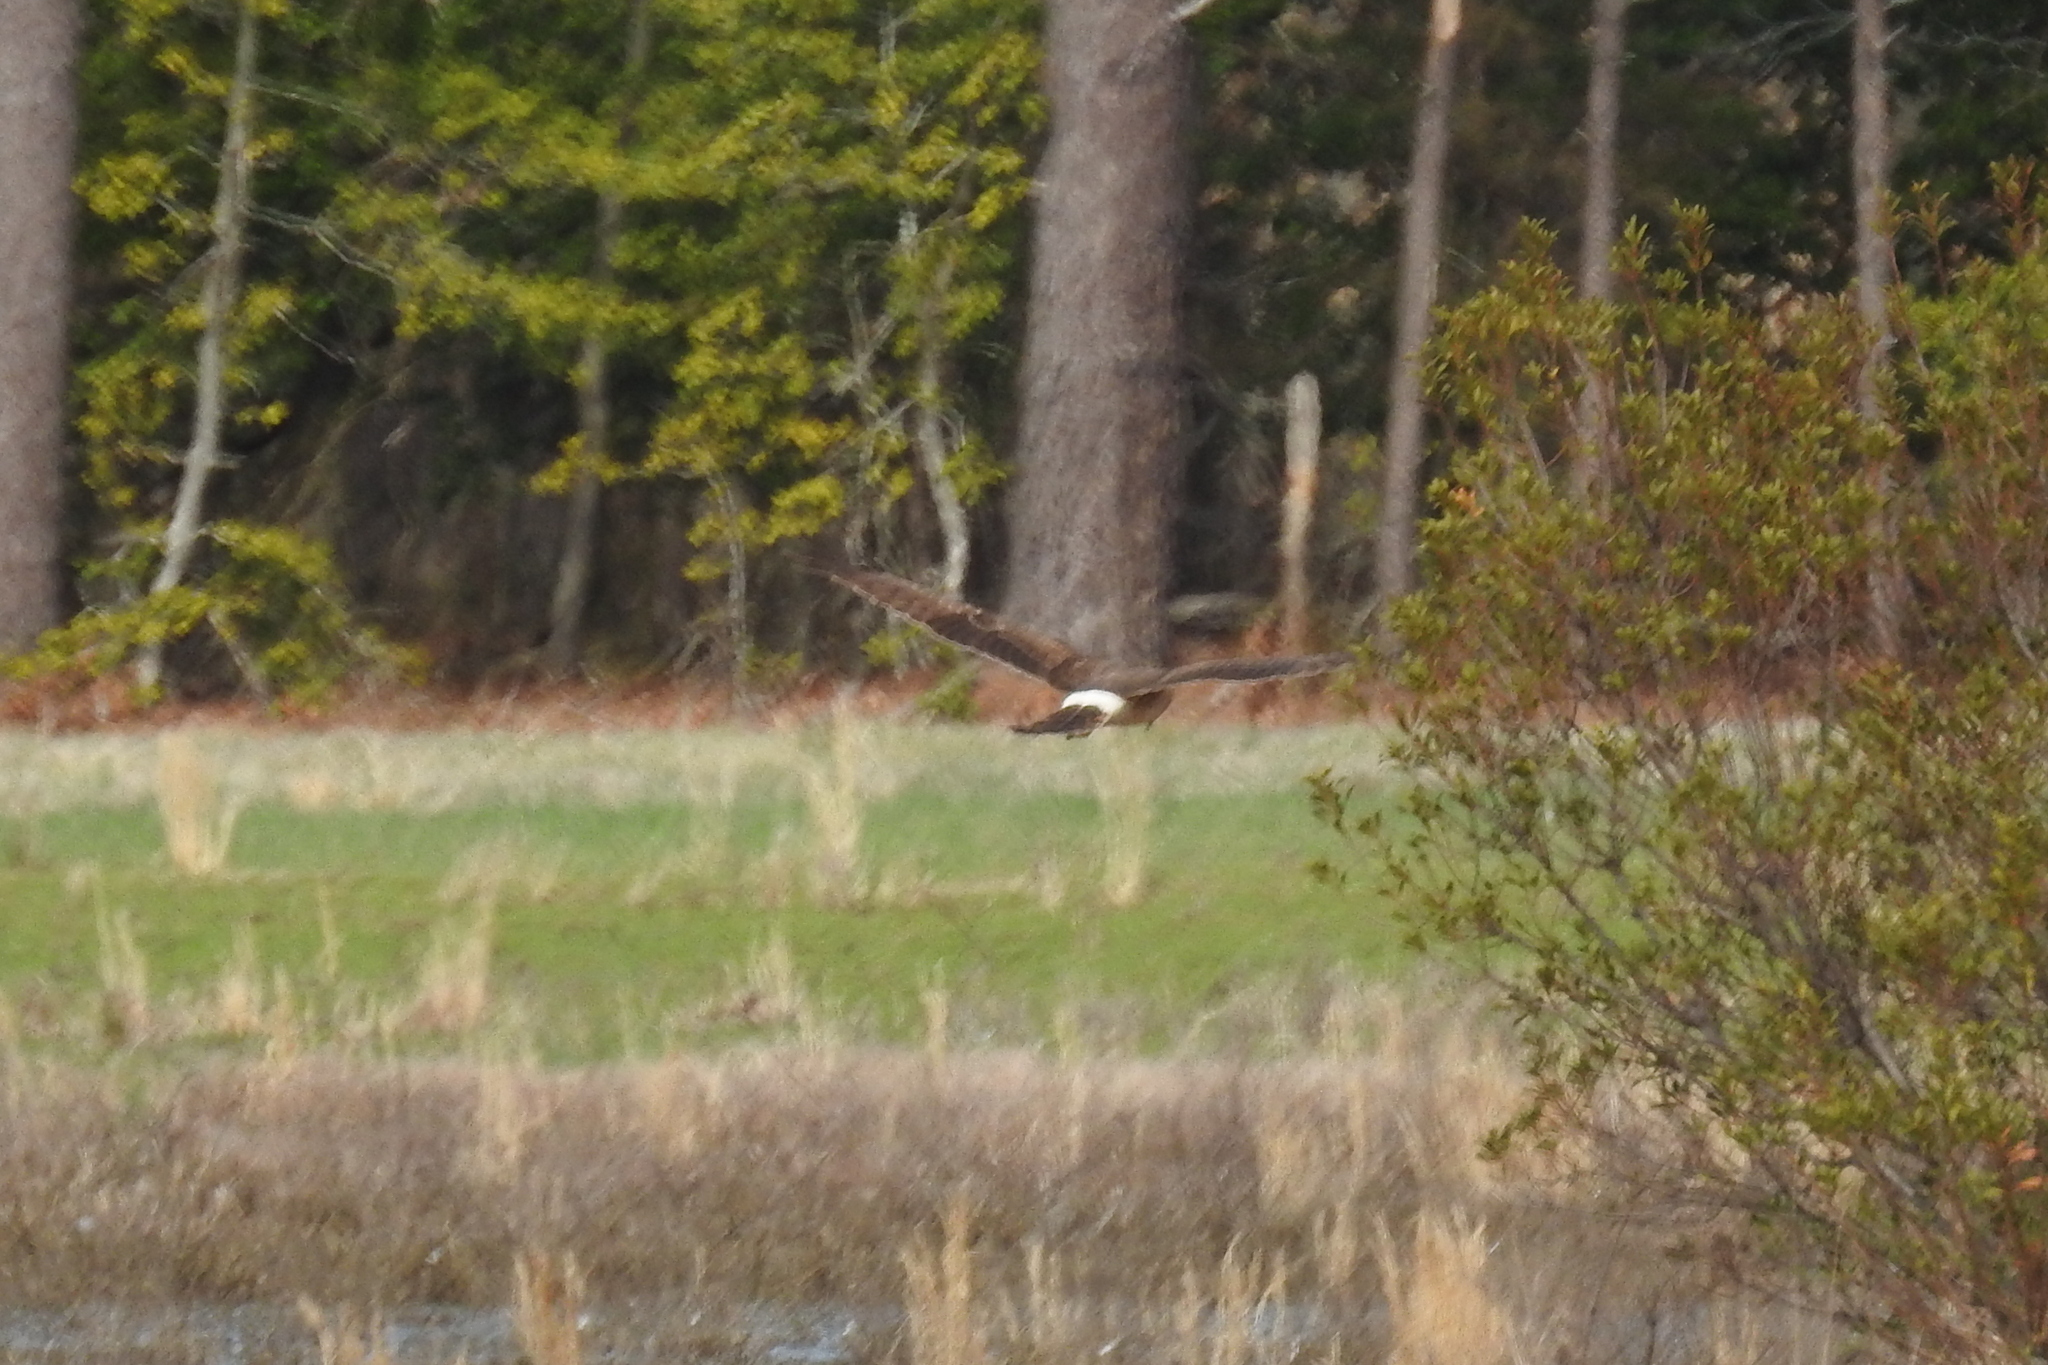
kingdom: Animalia
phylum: Chordata
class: Aves
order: Accipitriformes
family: Accipitridae
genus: Circus
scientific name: Circus cyaneus
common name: Hen harrier
